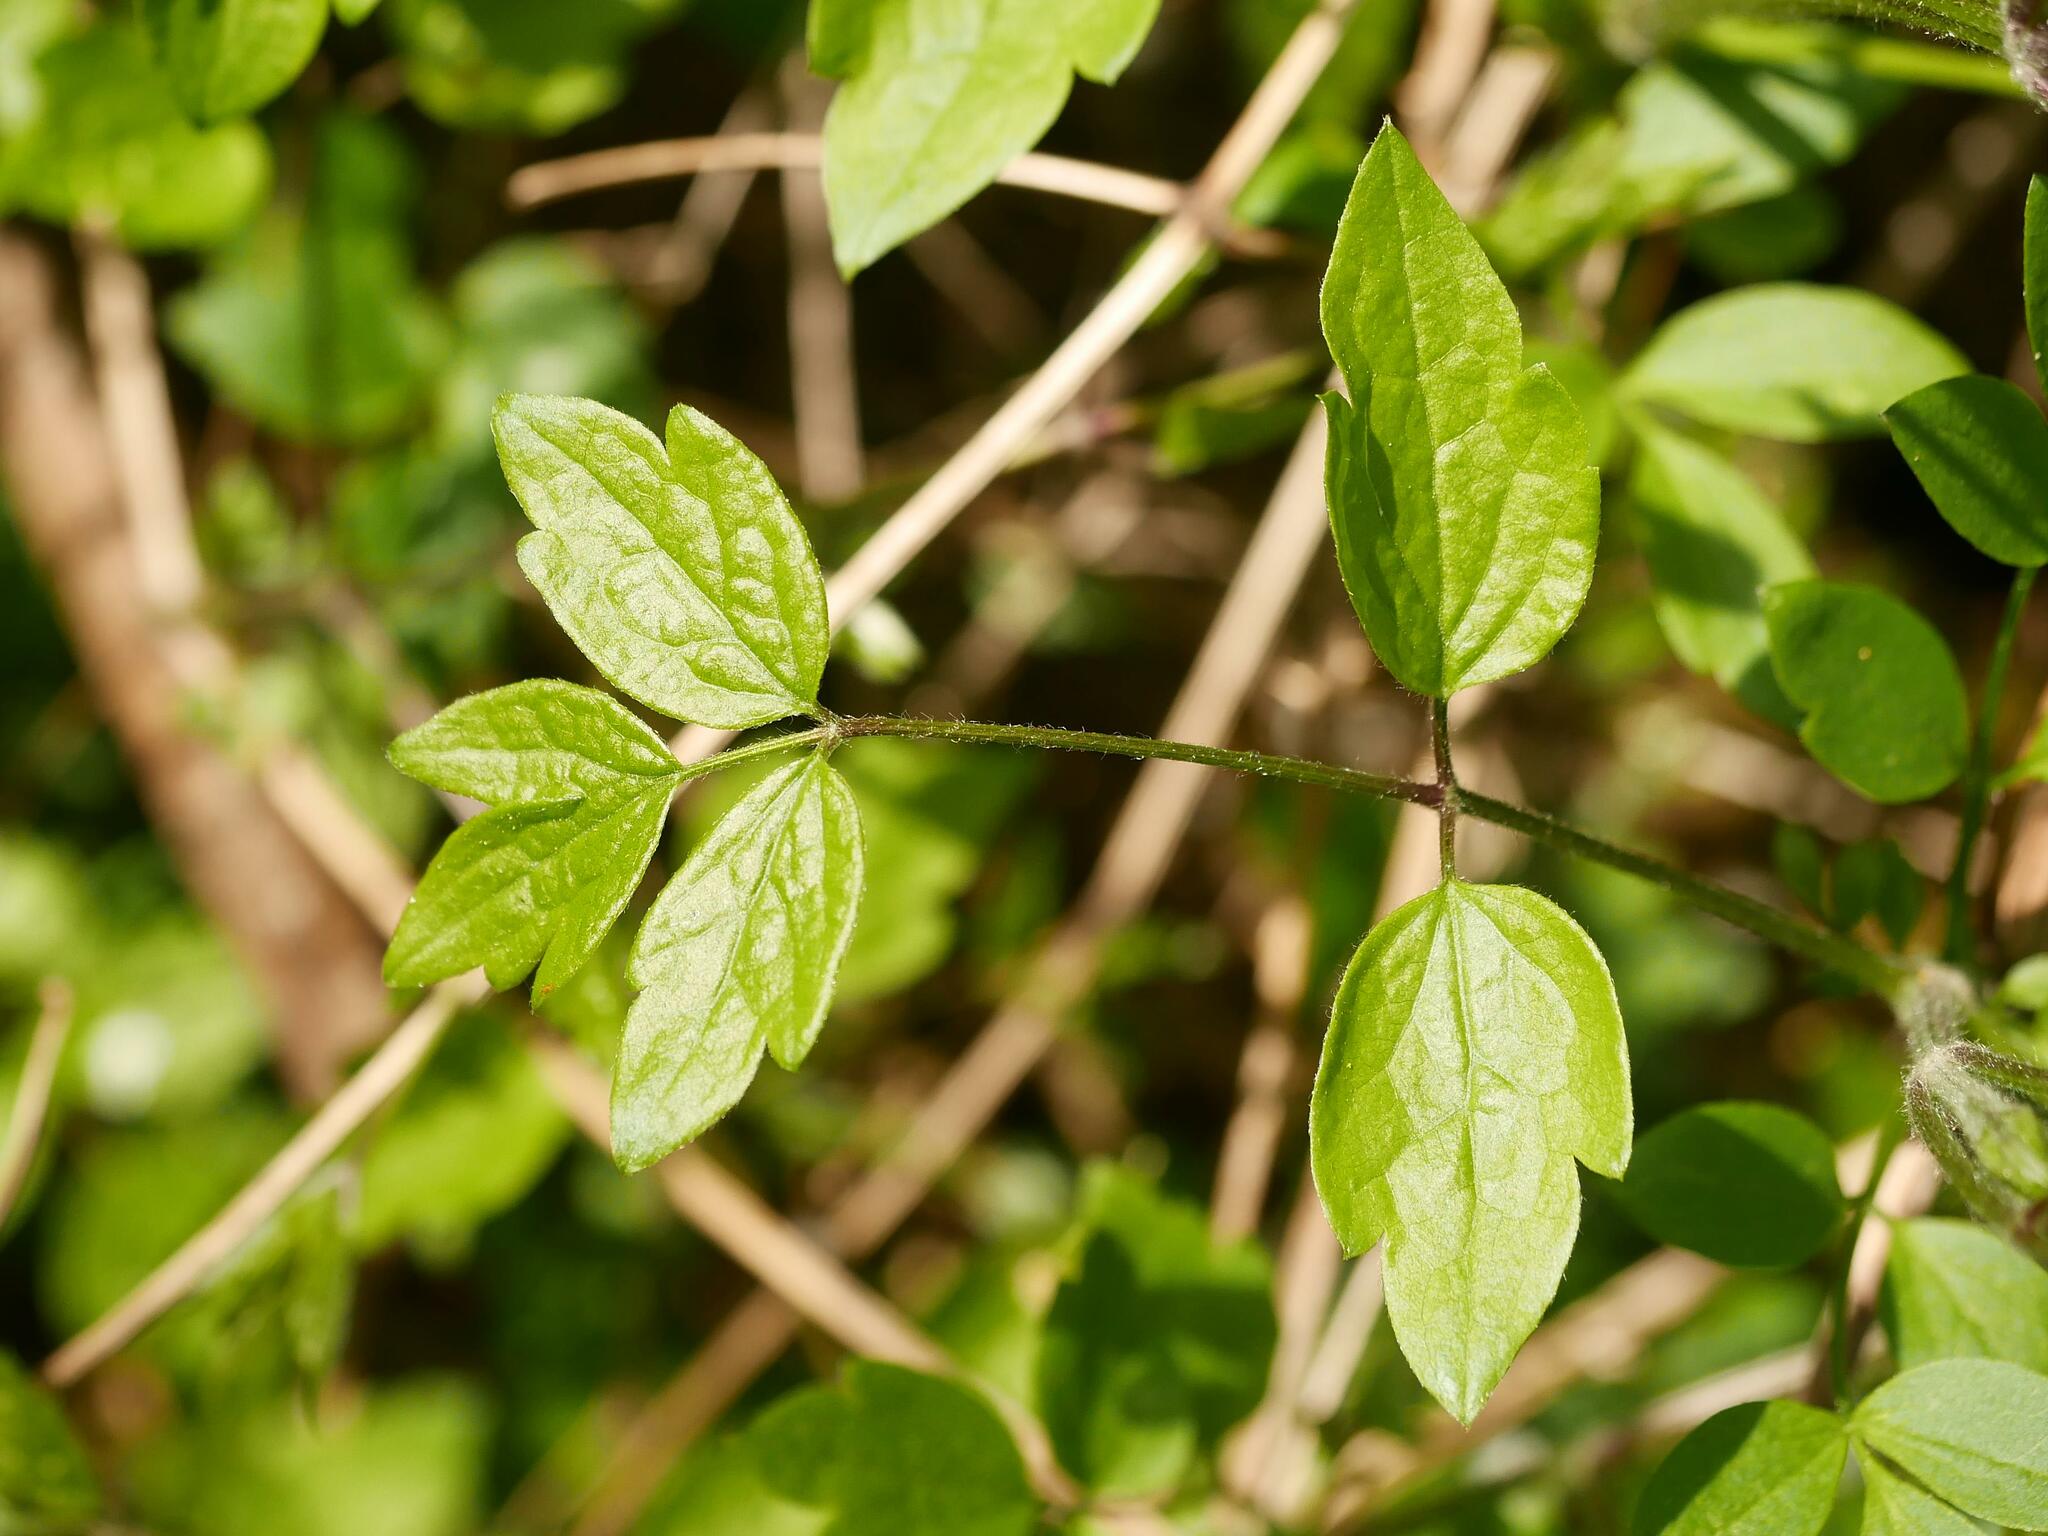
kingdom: Plantae
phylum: Tracheophyta
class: Magnoliopsida
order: Ranunculales
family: Ranunculaceae
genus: Clematis
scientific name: Clematis vitalba
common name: Evergreen clematis
